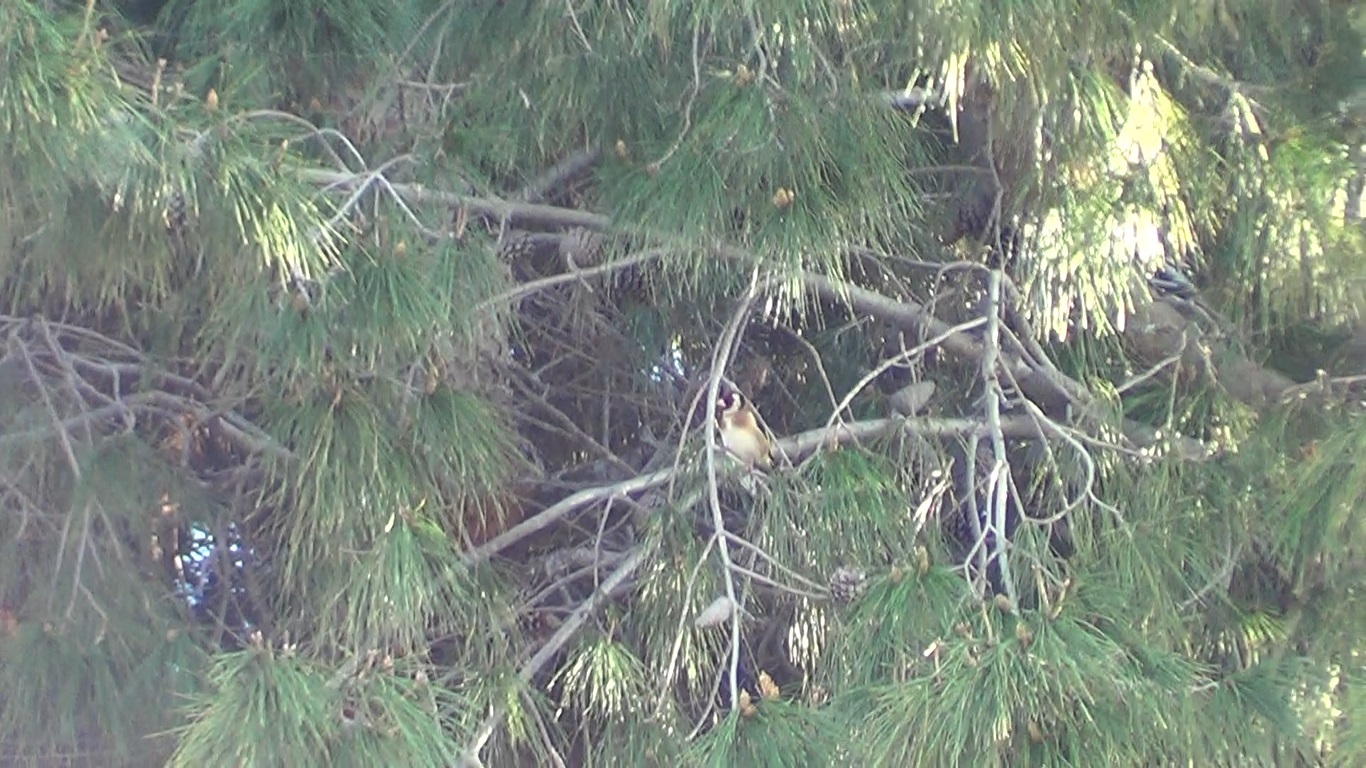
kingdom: Animalia
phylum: Chordata
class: Aves
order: Passeriformes
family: Fringillidae
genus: Carduelis
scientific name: Carduelis carduelis
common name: European goldfinch
